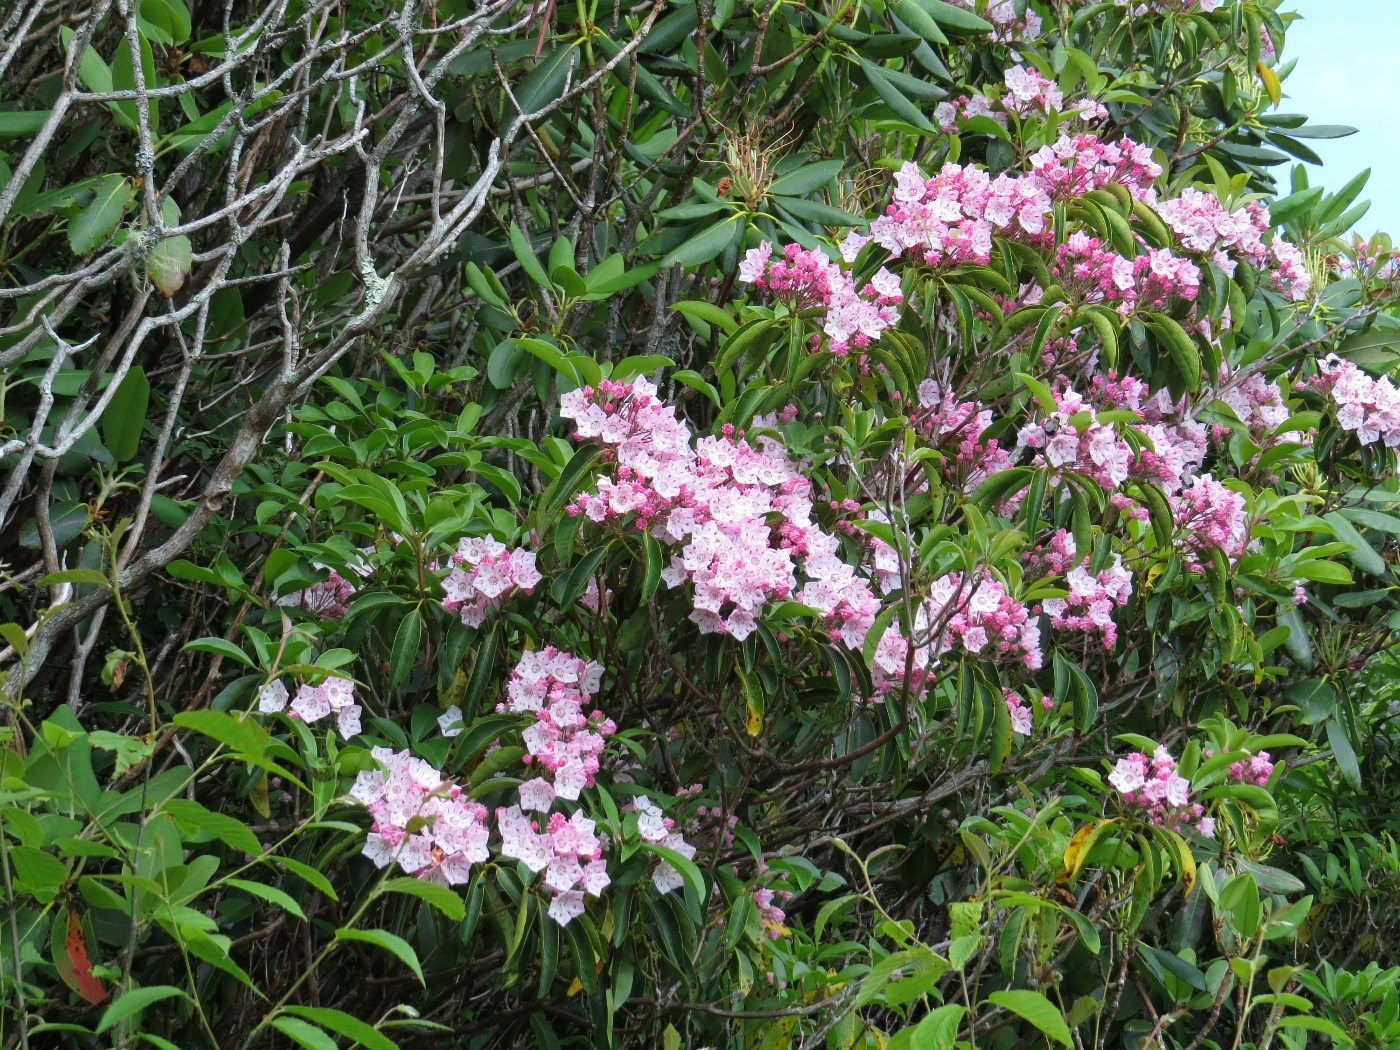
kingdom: Plantae
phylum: Tracheophyta
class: Magnoliopsida
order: Ericales
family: Ericaceae
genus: Kalmia
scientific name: Kalmia latifolia
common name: Mountain-laurel
